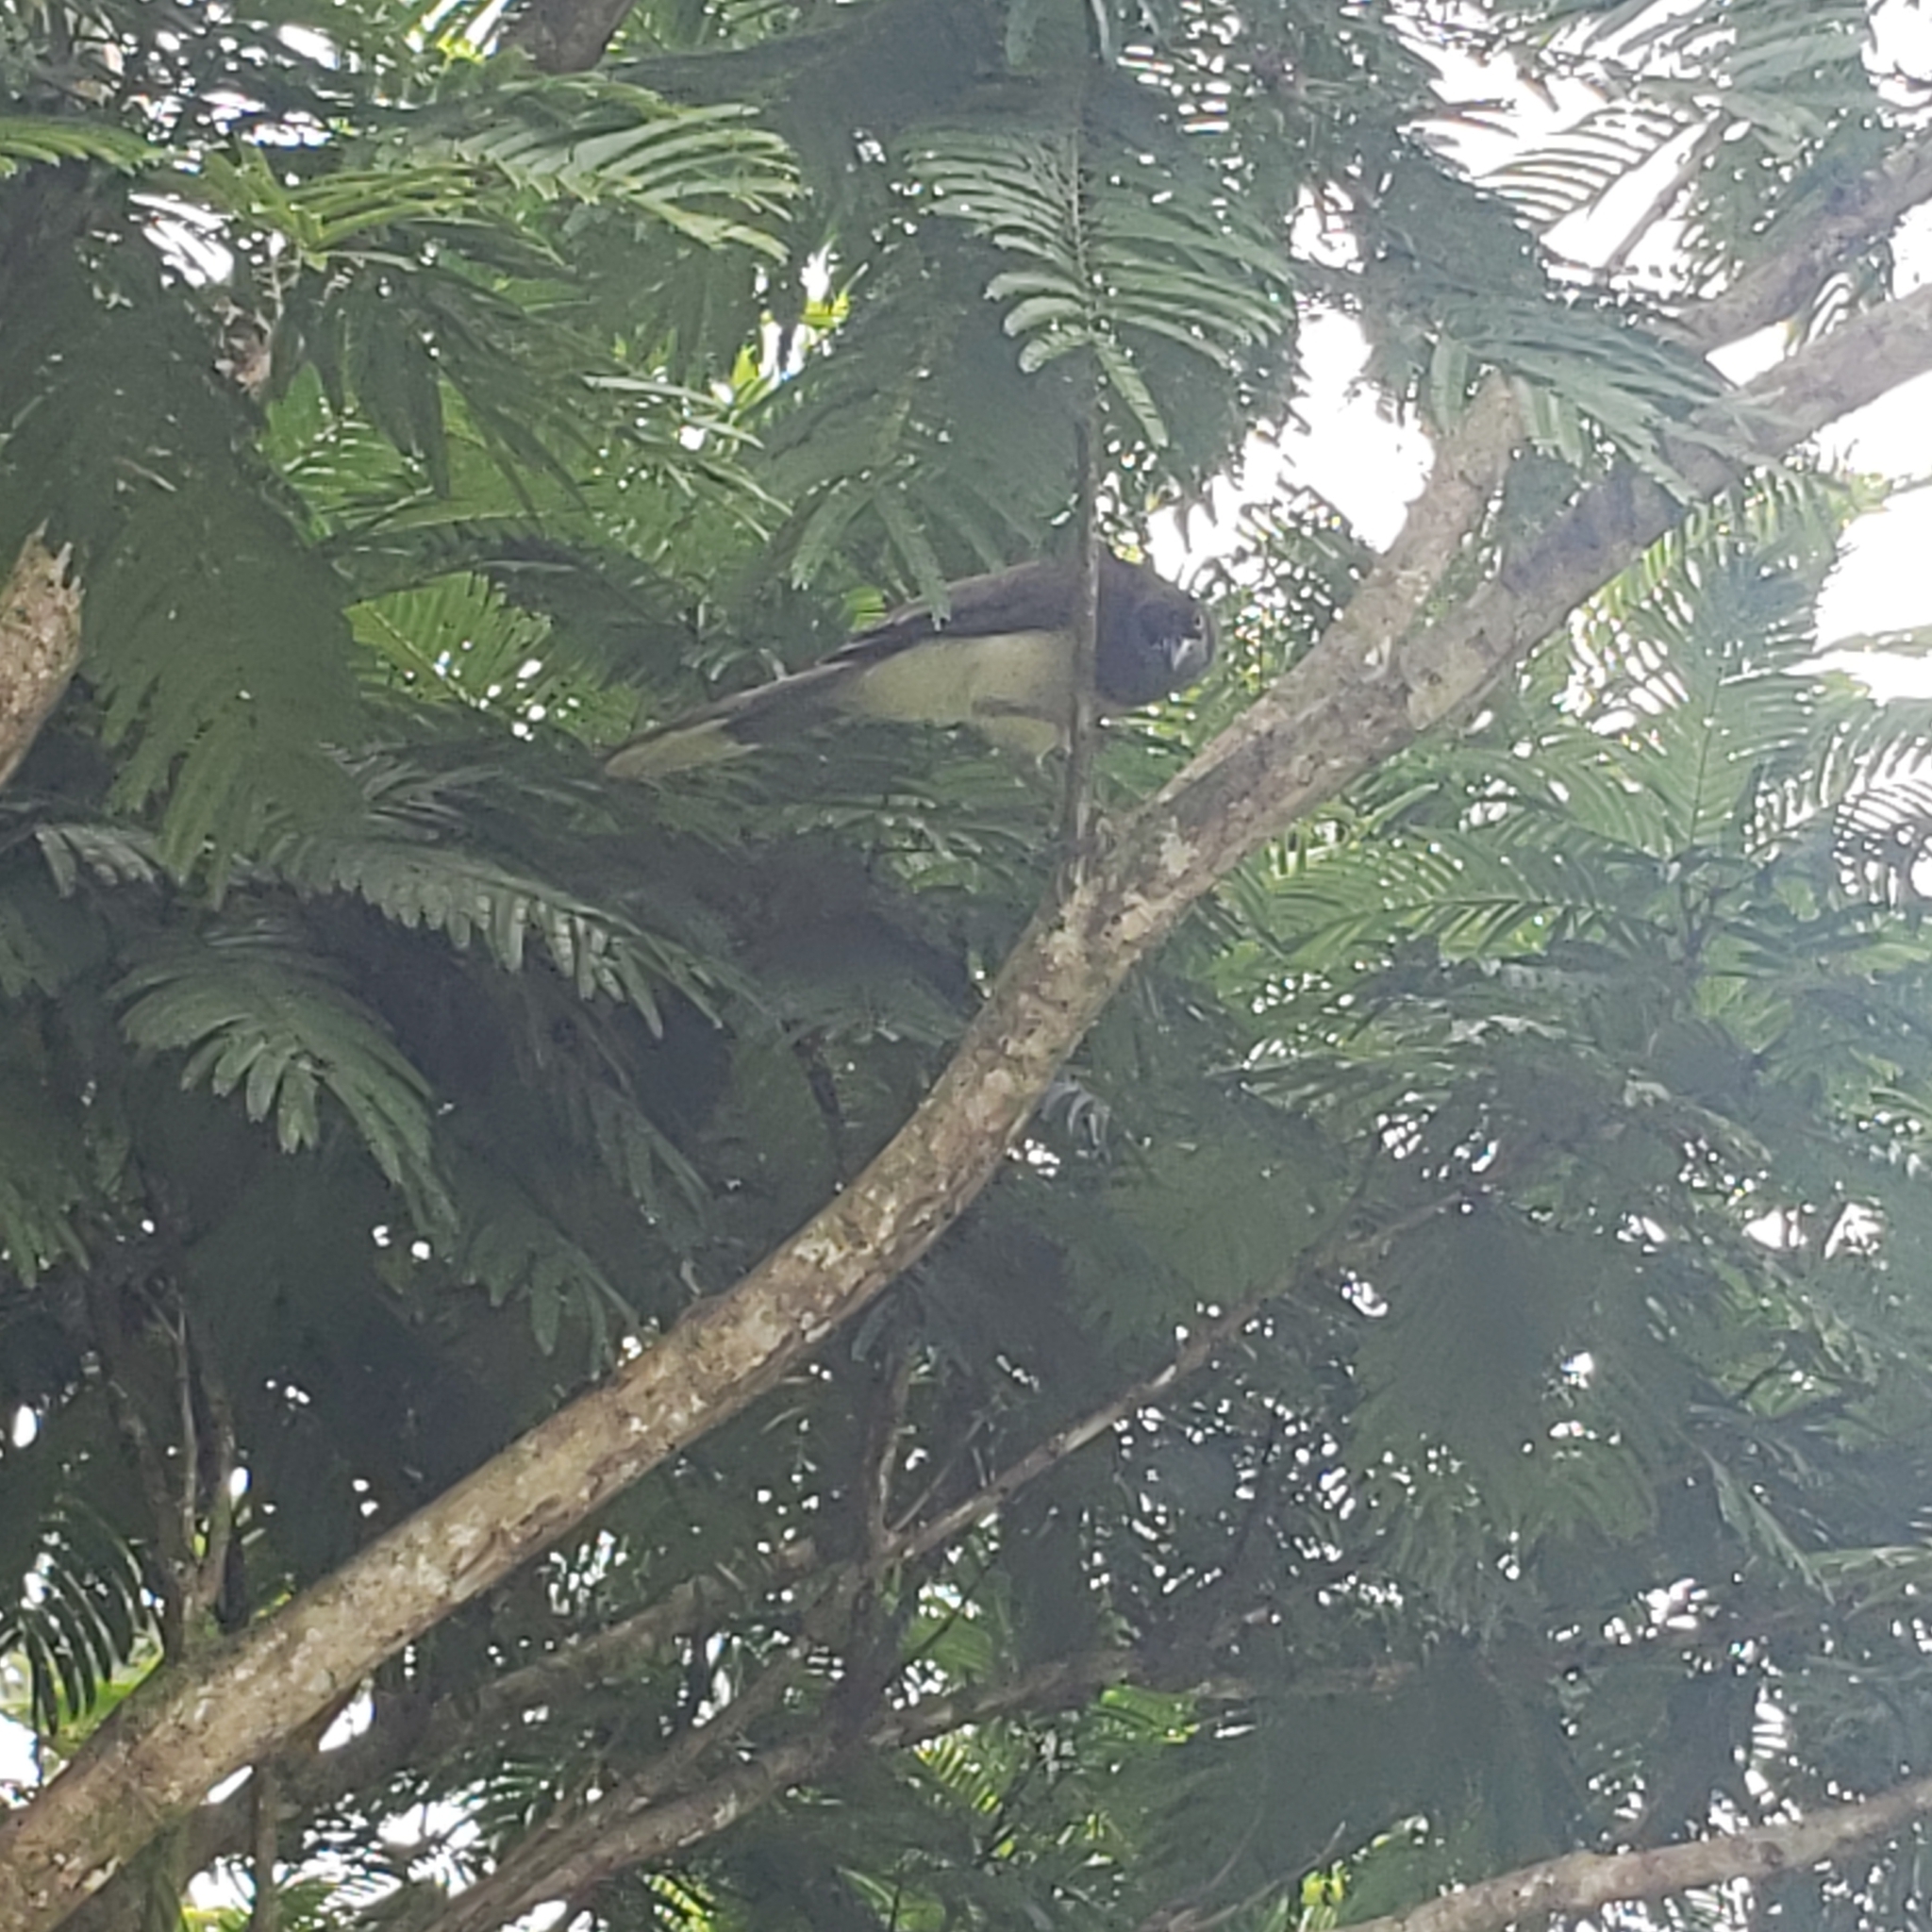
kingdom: Animalia
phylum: Chordata
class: Aves
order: Passeriformes
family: Corvidae
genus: Psilorhinus
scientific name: Psilorhinus morio
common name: Brown jay
